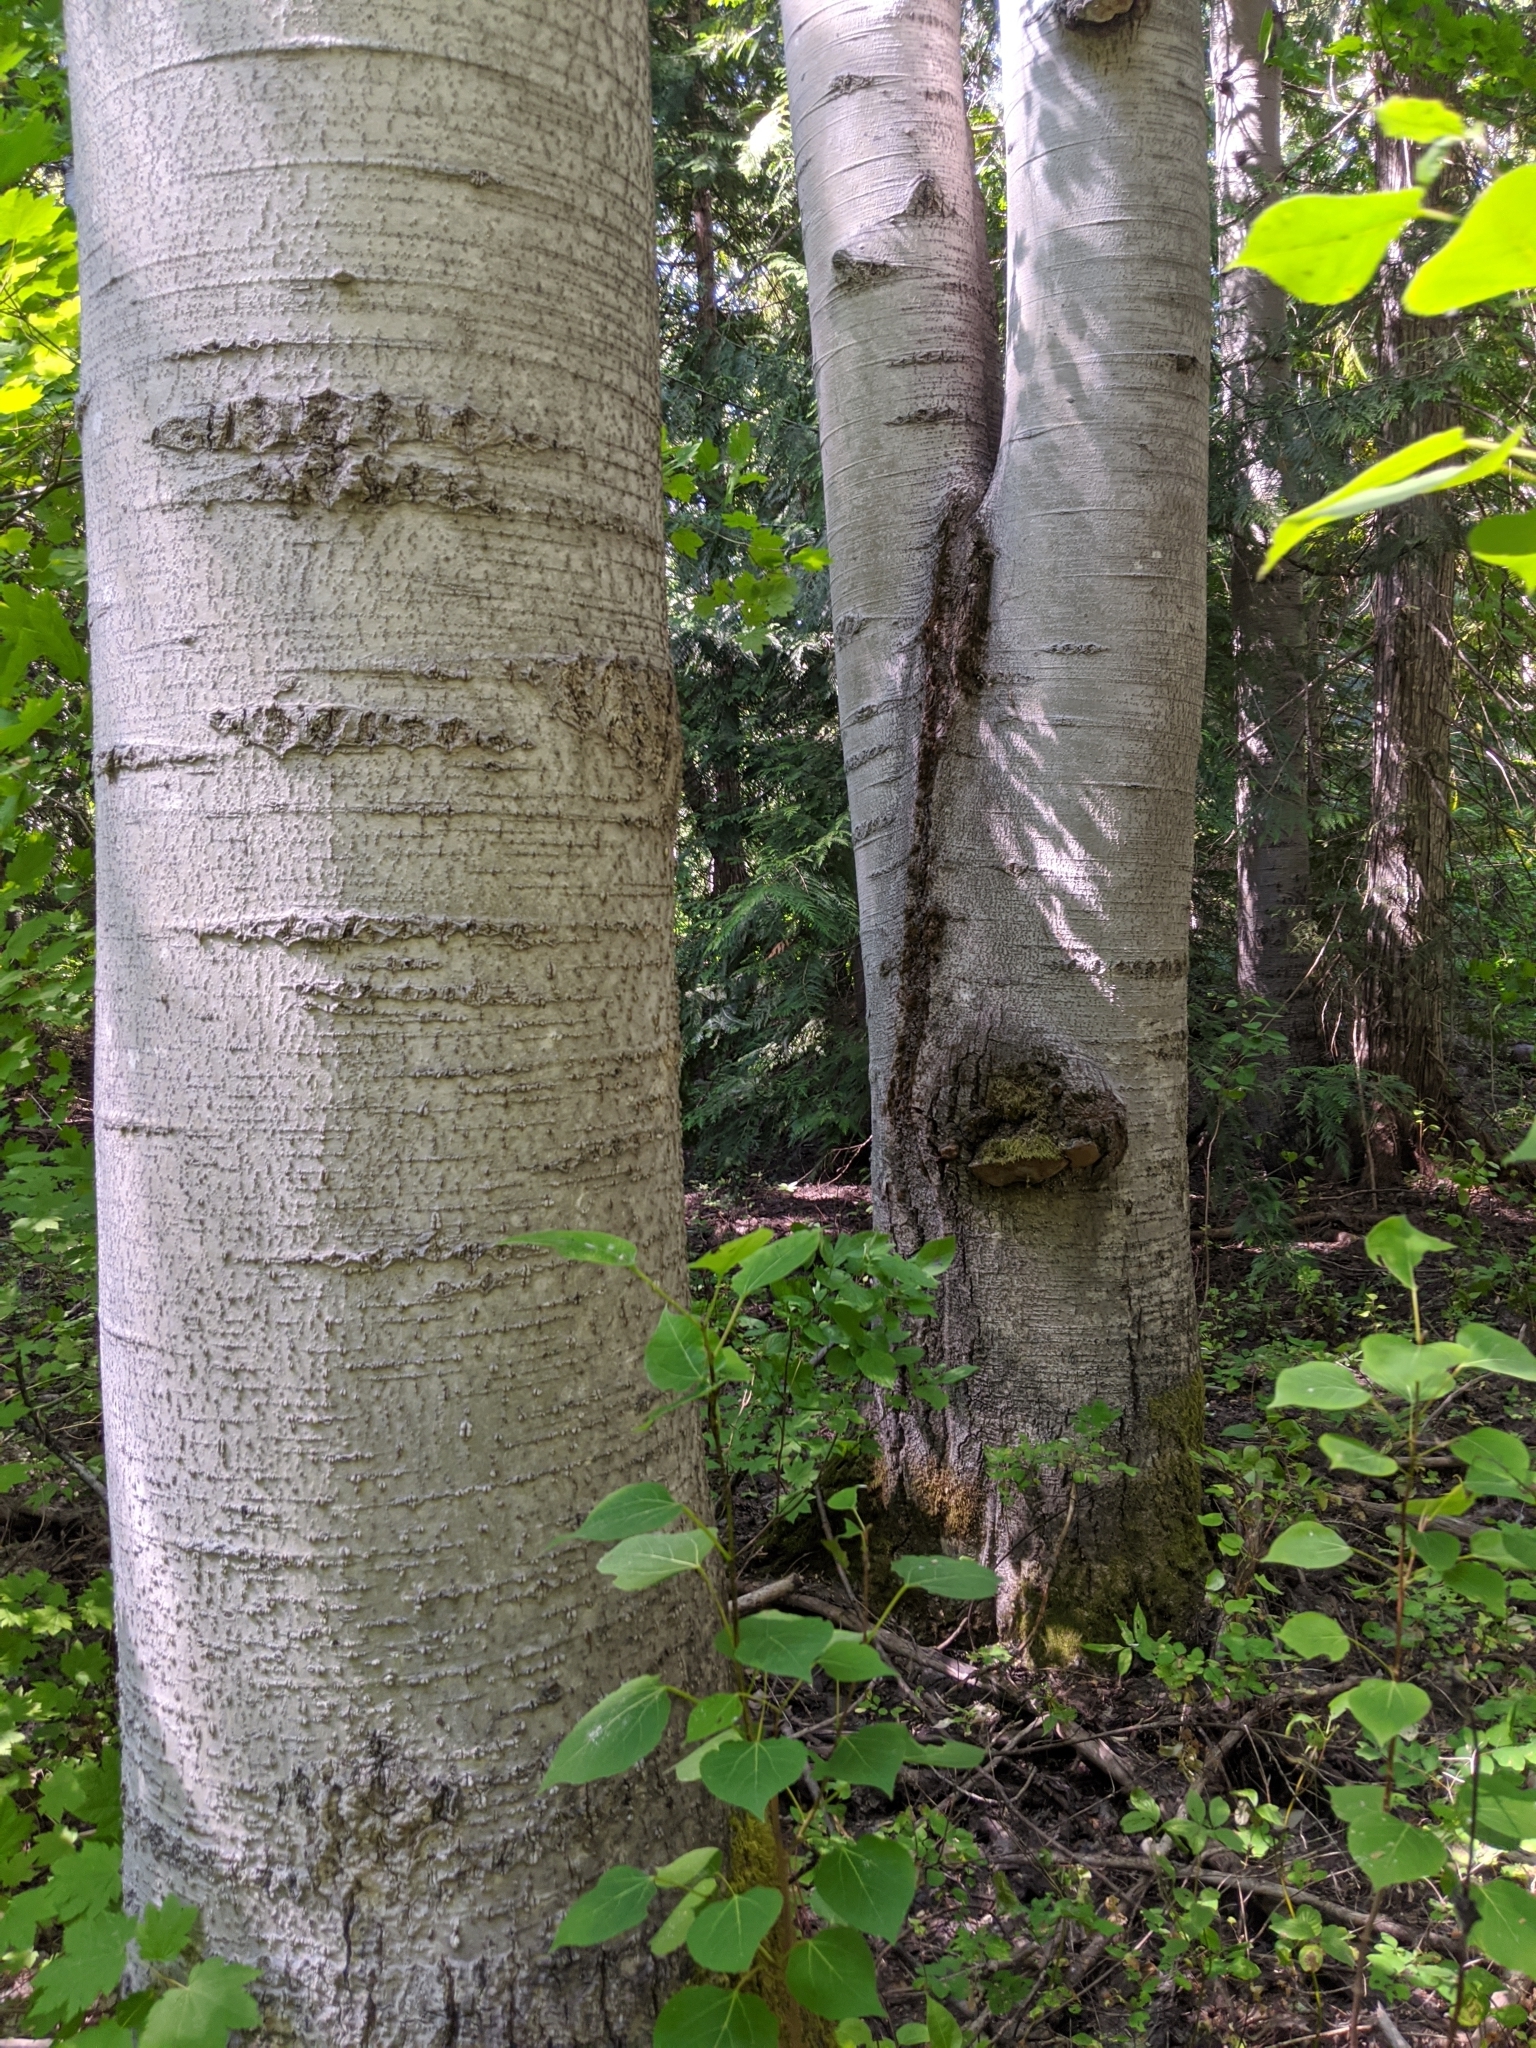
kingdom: Plantae
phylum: Tracheophyta
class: Magnoliopsida
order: Malpighiales
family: Salicaceae
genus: Populus
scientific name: Populus tremuloides
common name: Quaking aspen
